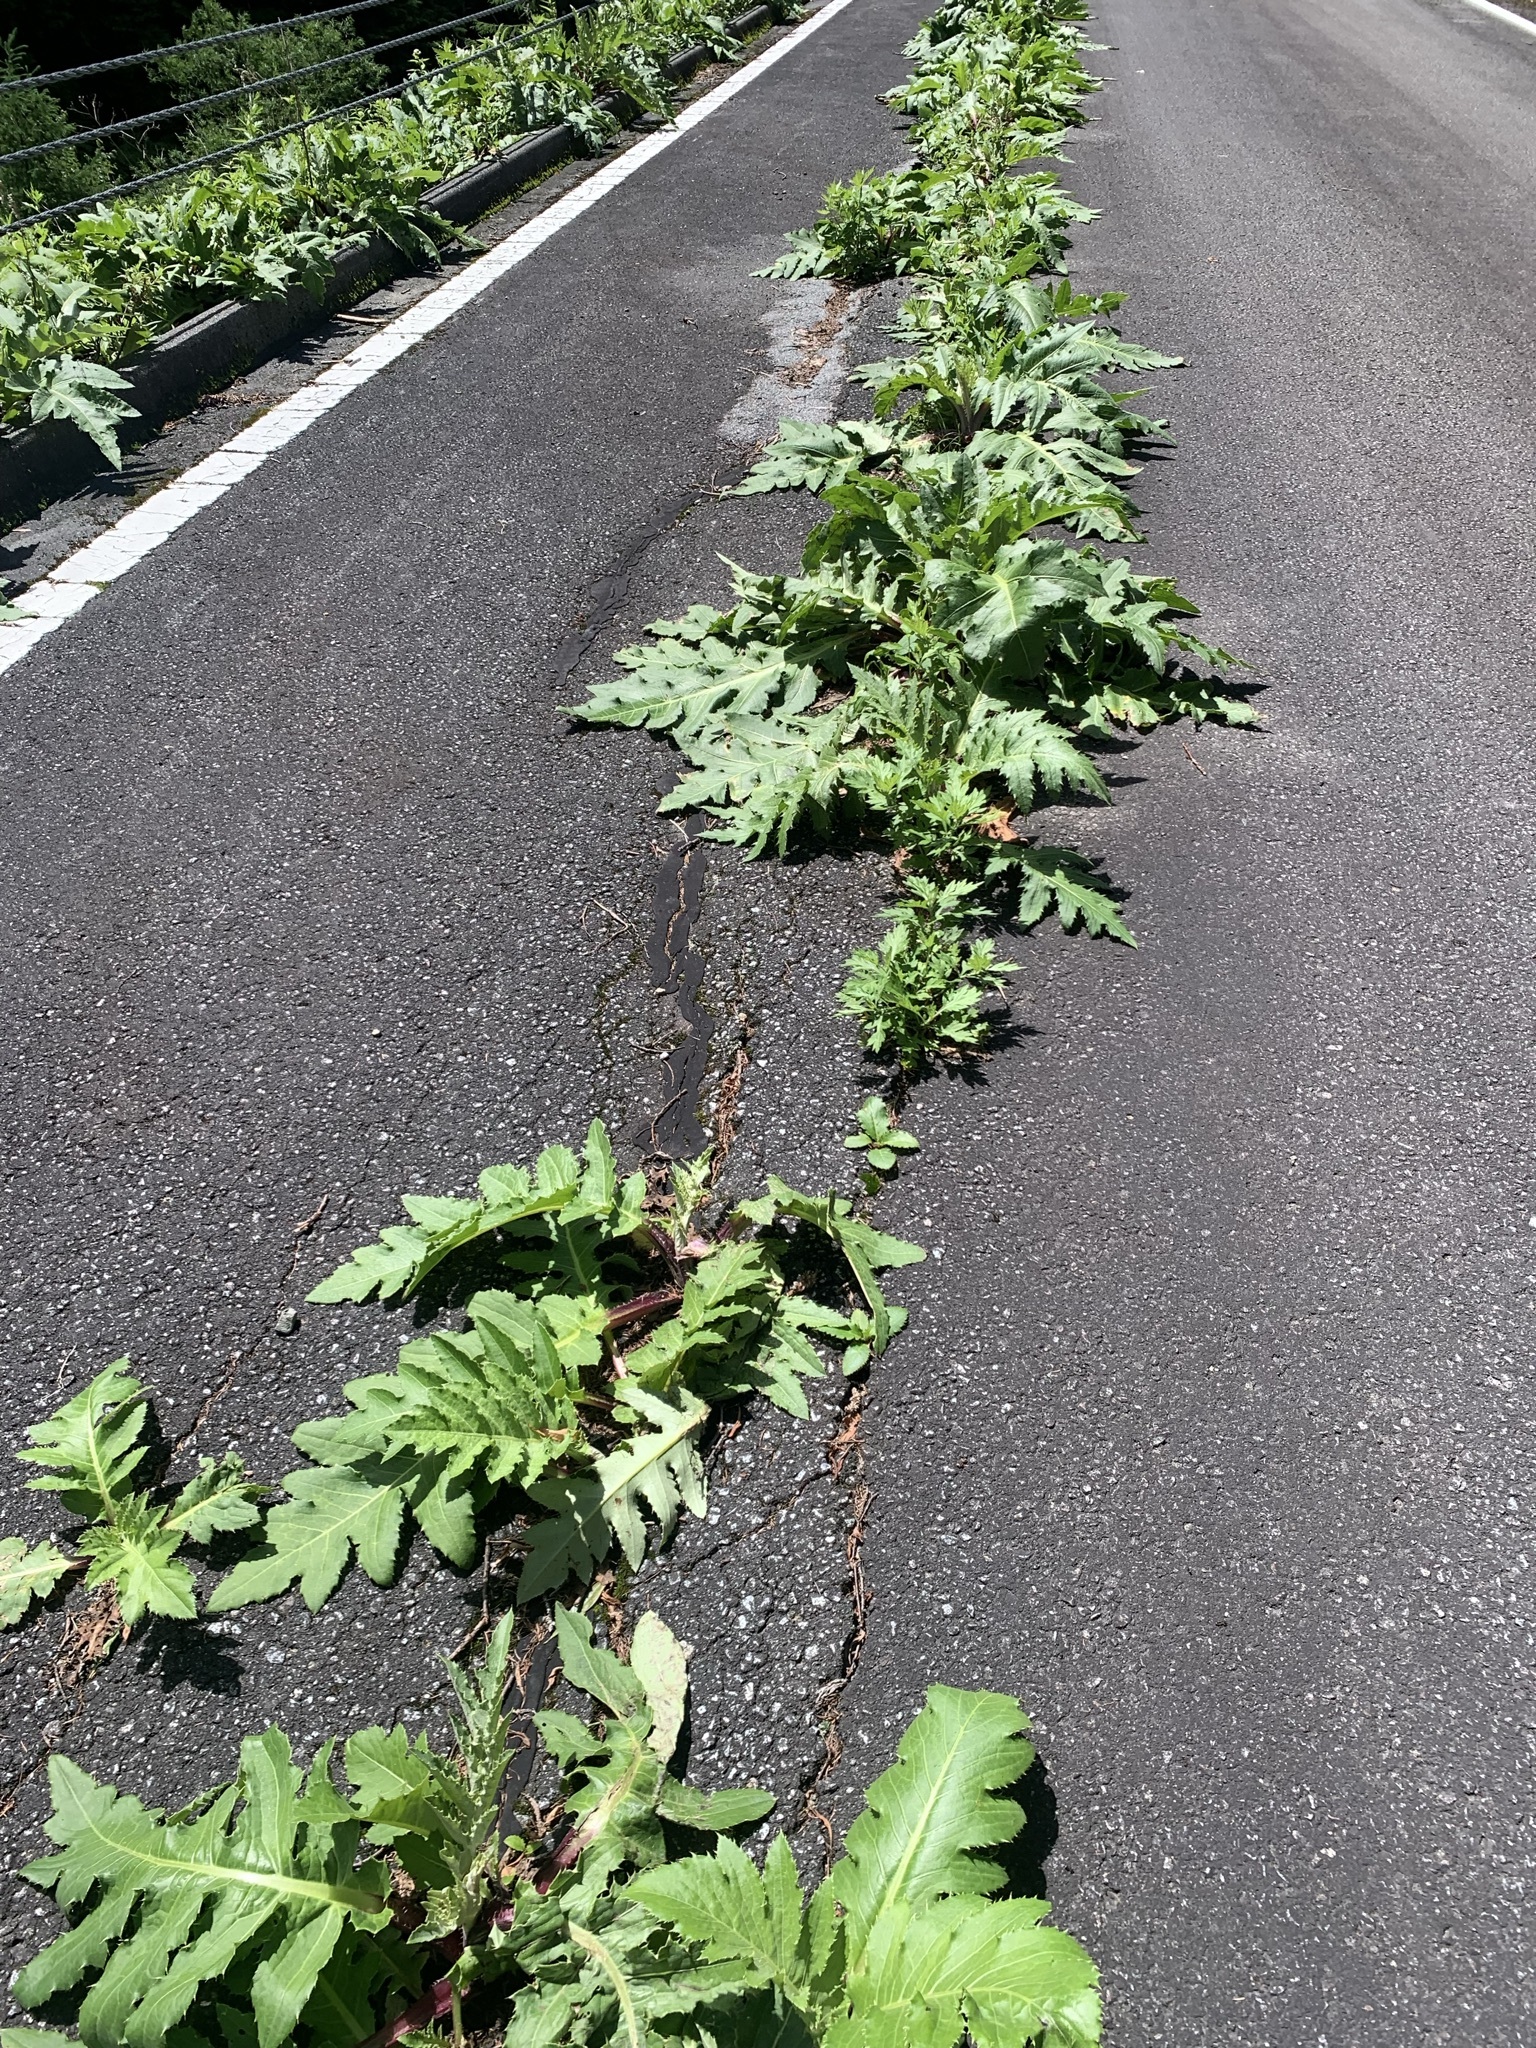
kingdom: Plantae
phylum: Tracheophyta
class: Magnoliopsida
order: Asterales
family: Asteraceae
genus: Cirsium
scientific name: Cirsium purpuratum
